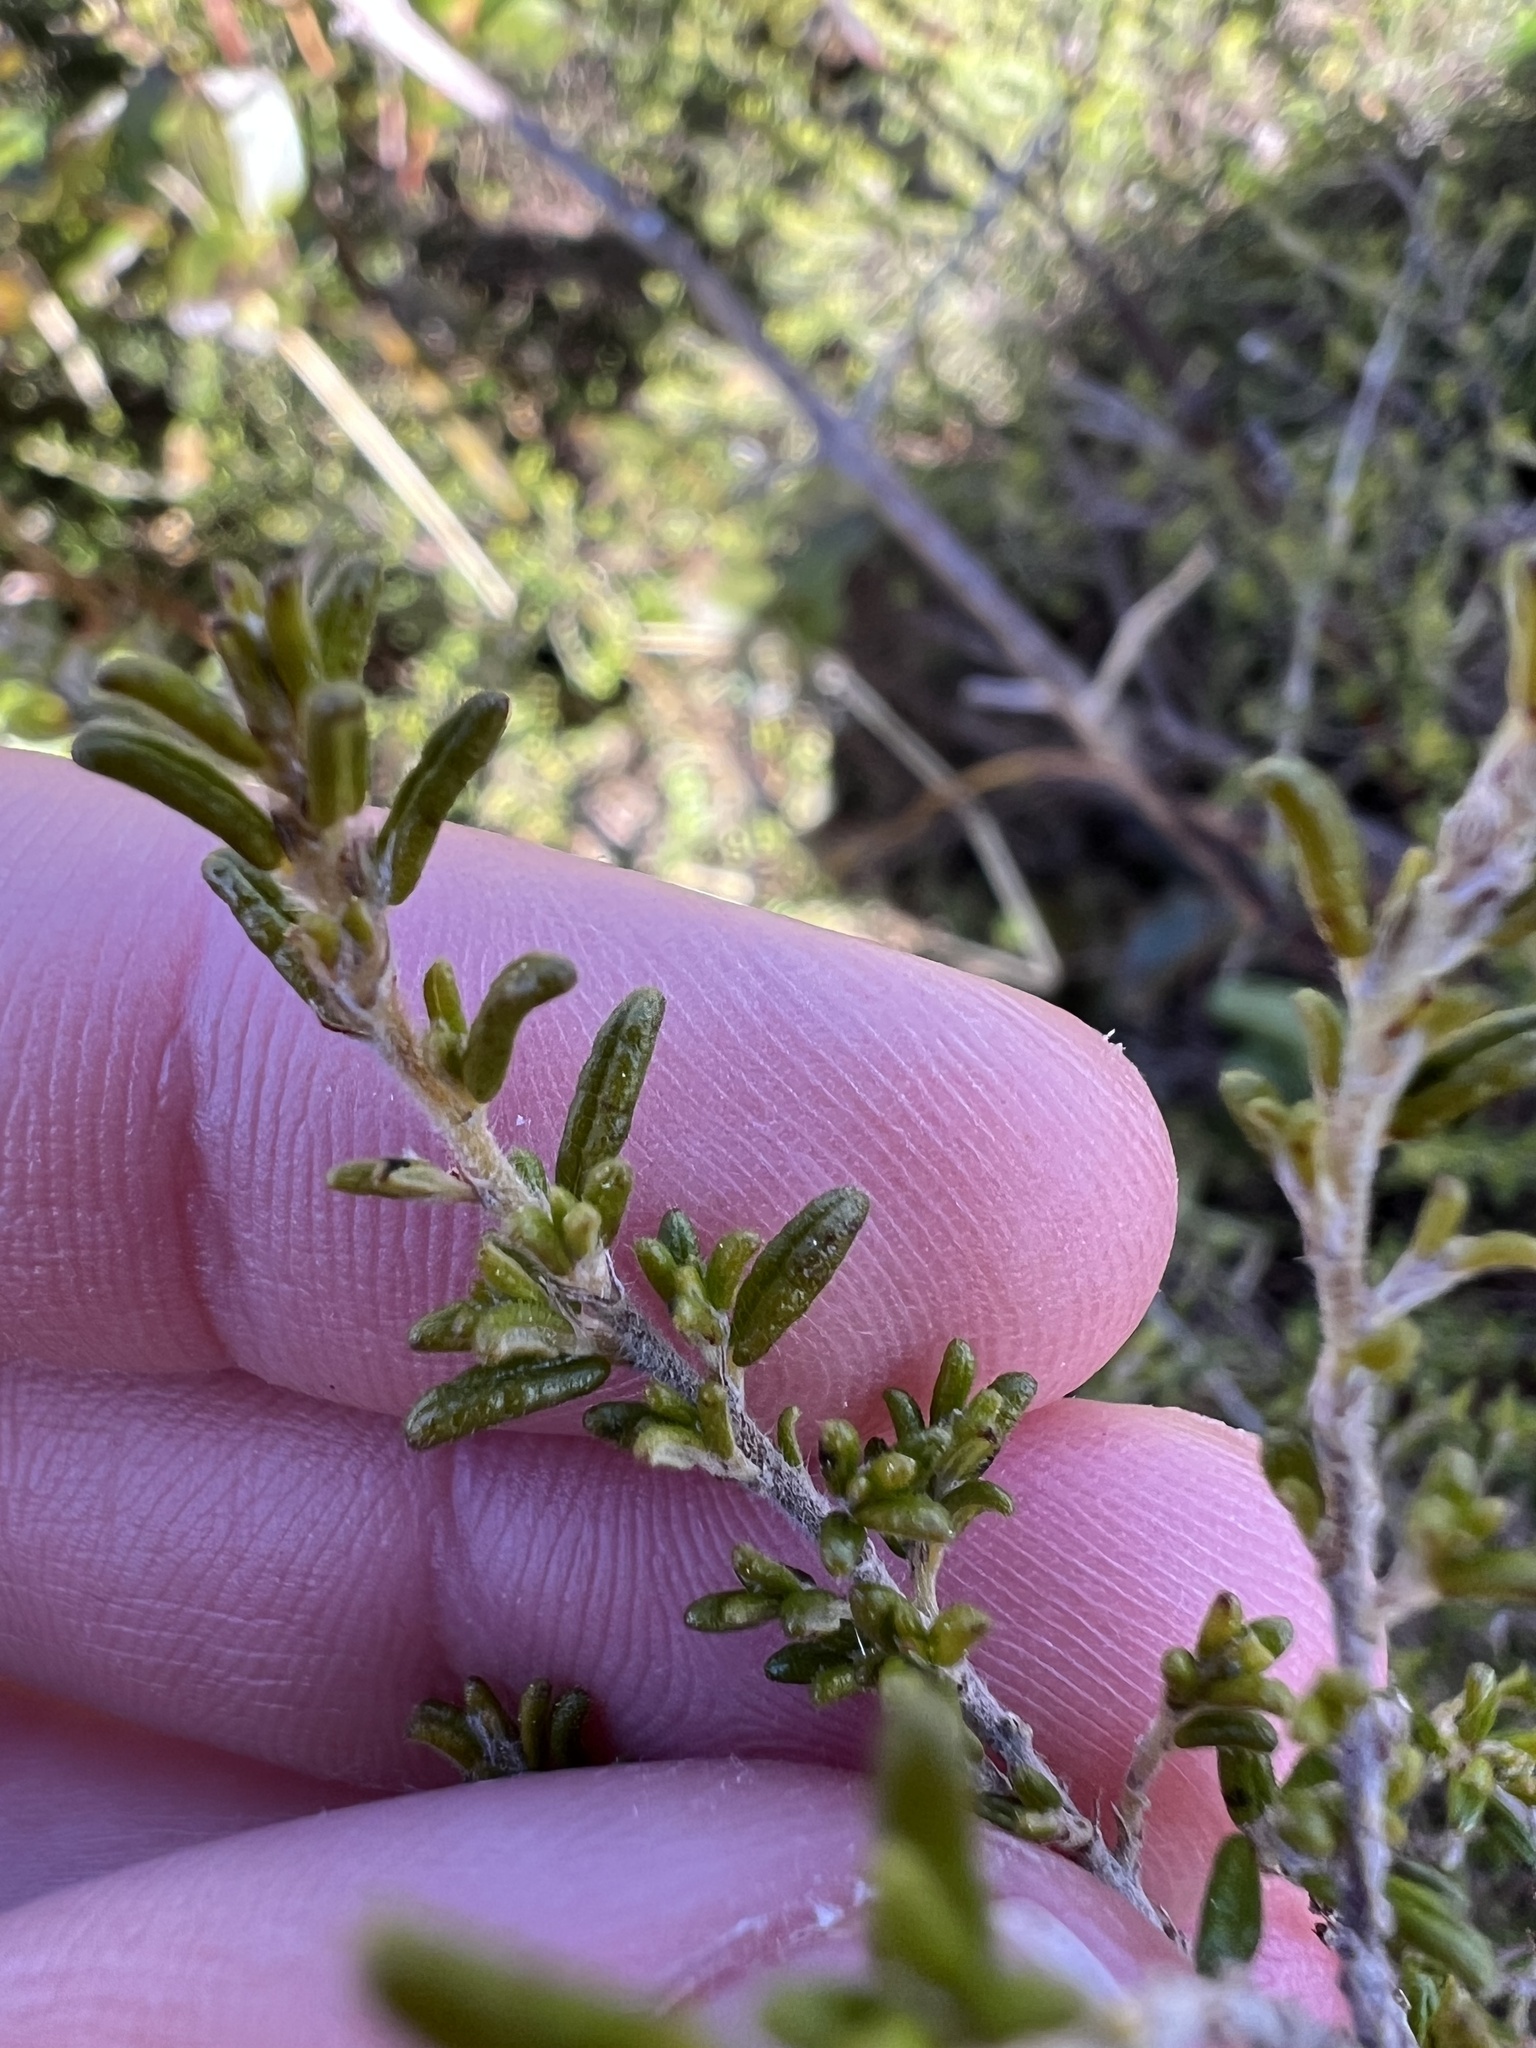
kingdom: Plantae
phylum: Tracheophyta
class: Magnoliopsida
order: Rosales
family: Rhamnaceae
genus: Pomaderris
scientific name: Pomaderris amoena
